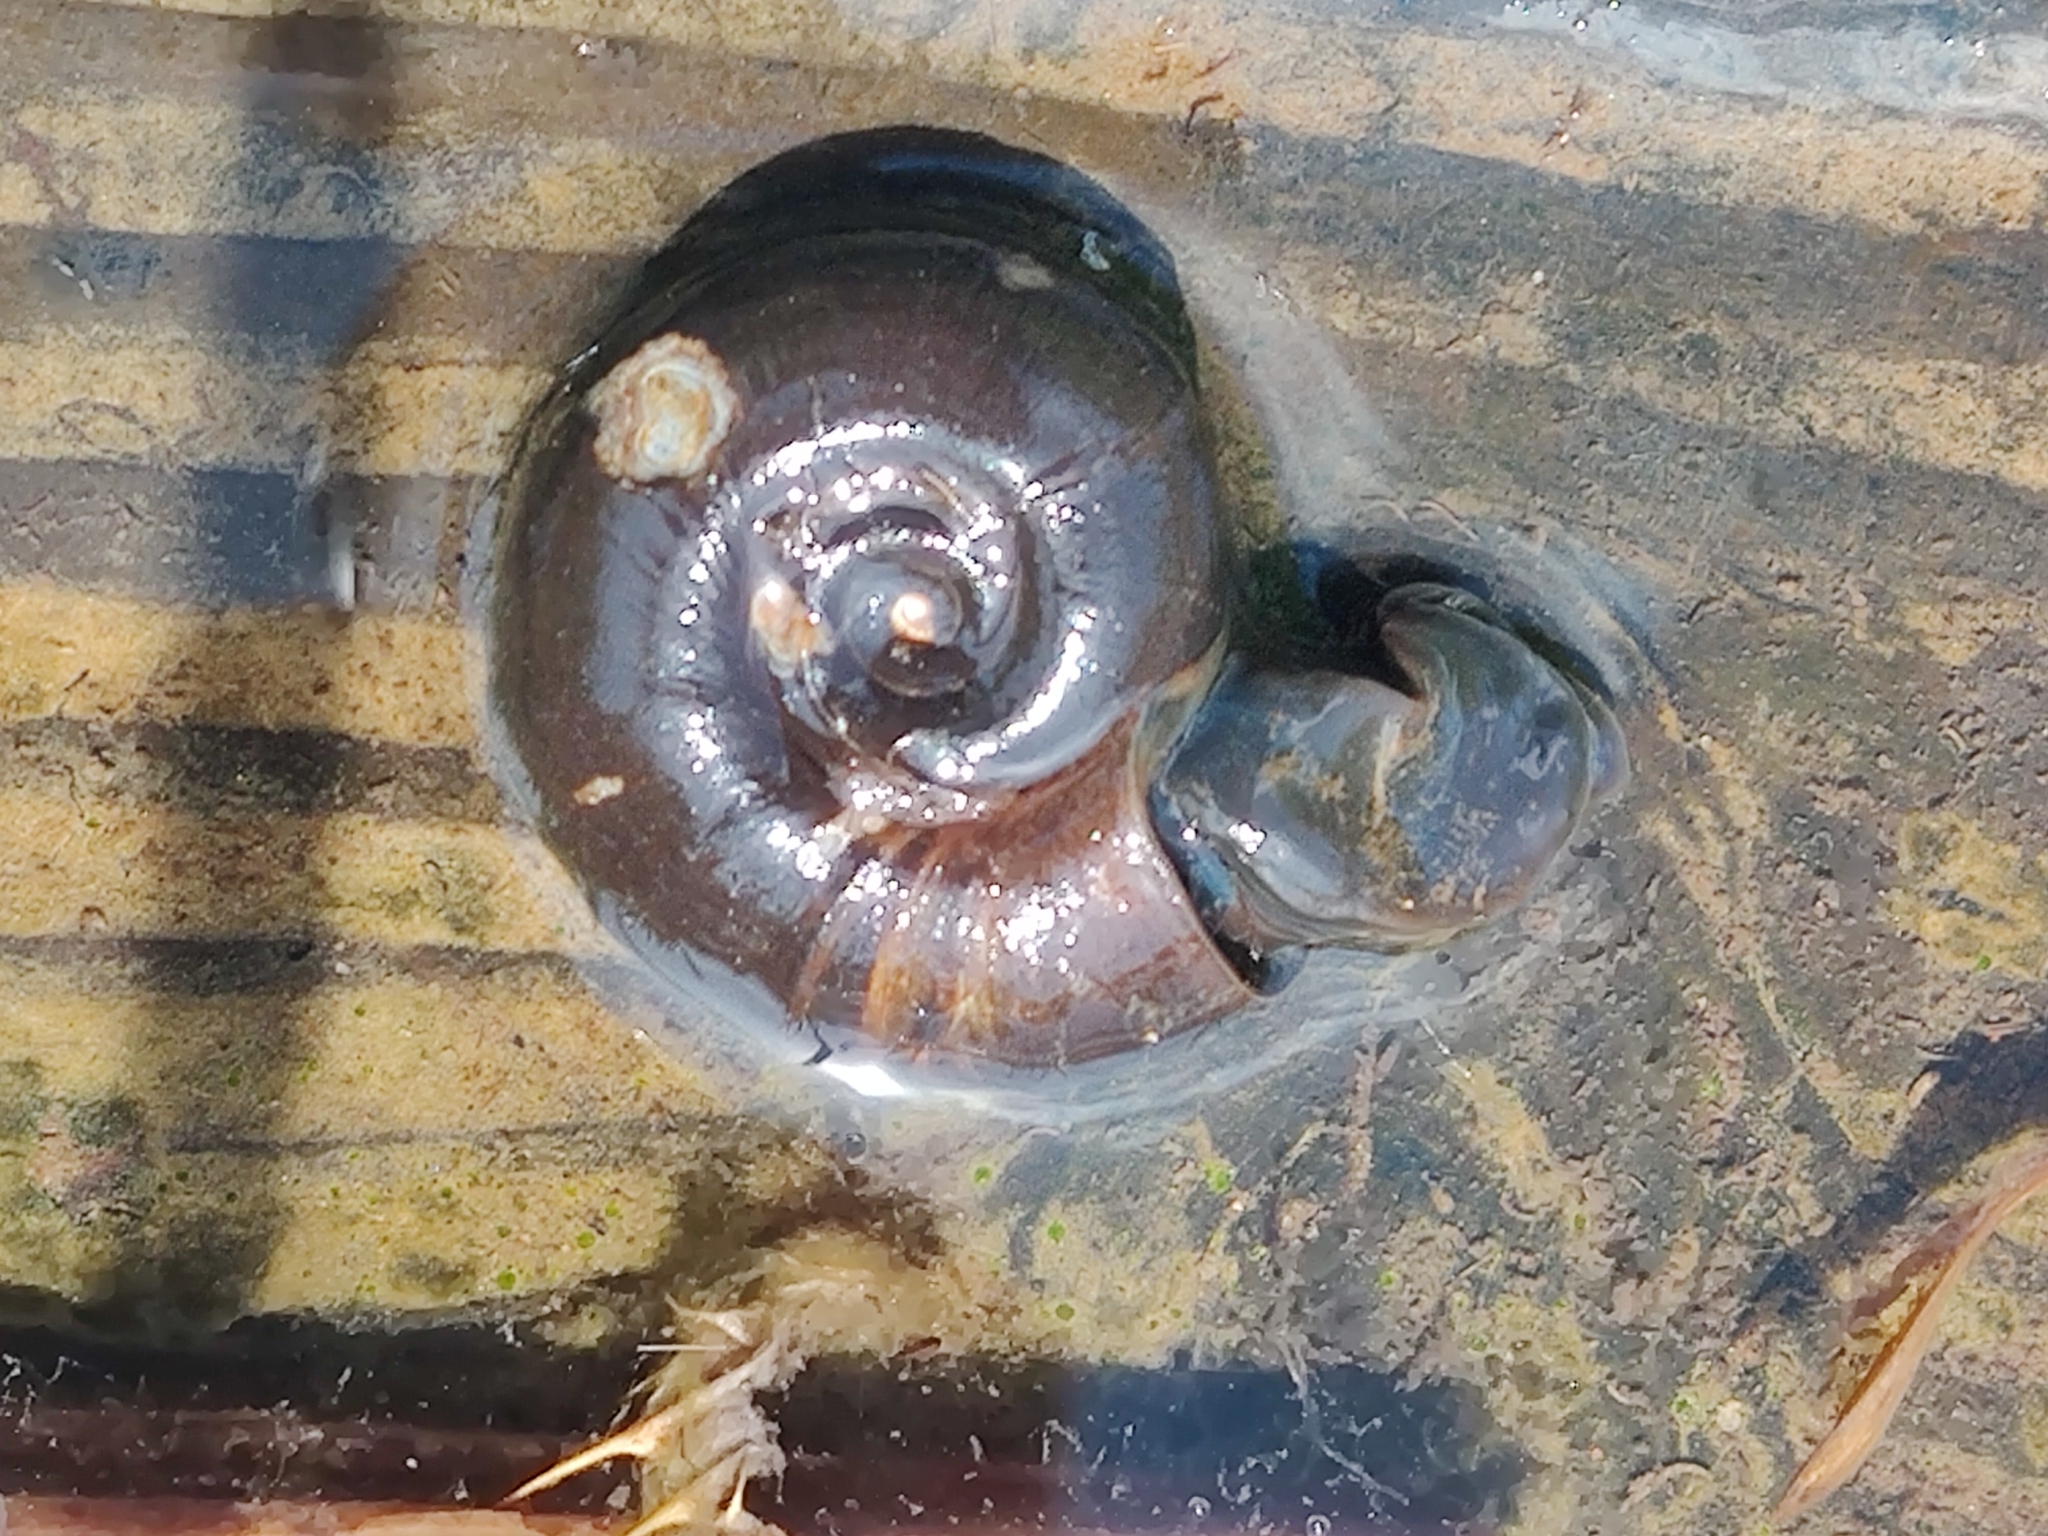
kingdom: Animalia
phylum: Mollusca
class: Gastropoda
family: Planorbidae
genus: Planorbarius
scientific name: Planorbarius corneus
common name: Great ramshorn
